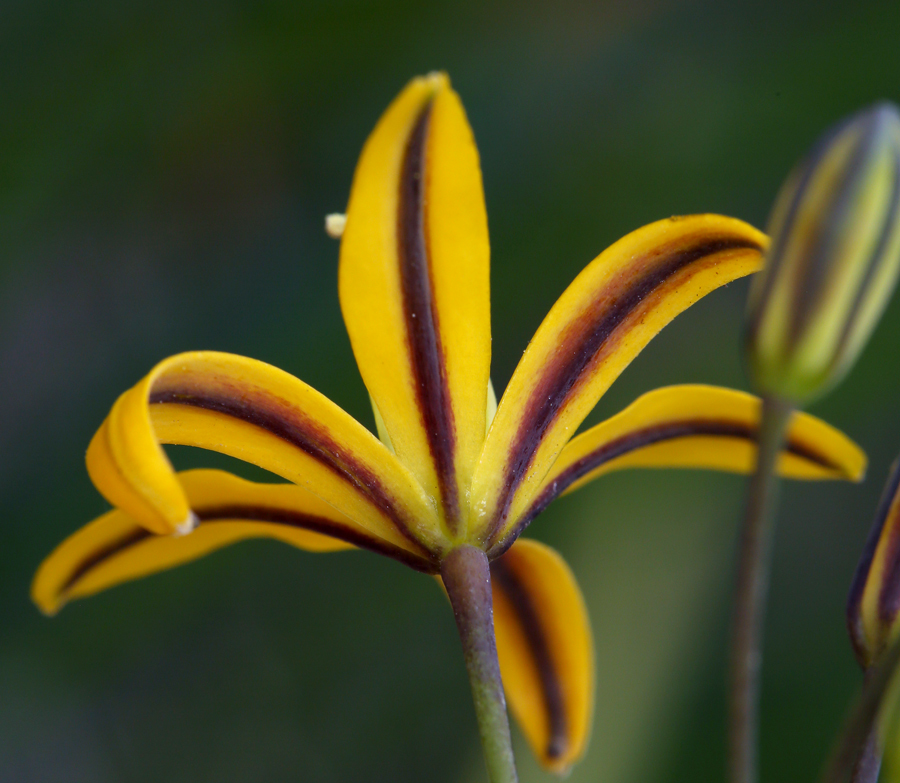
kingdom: Plantae
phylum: Tracheophyta
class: Liliopsida
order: Asparagales
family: Asparagaceae
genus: Bloomeria
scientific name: Bloomeria crocea
